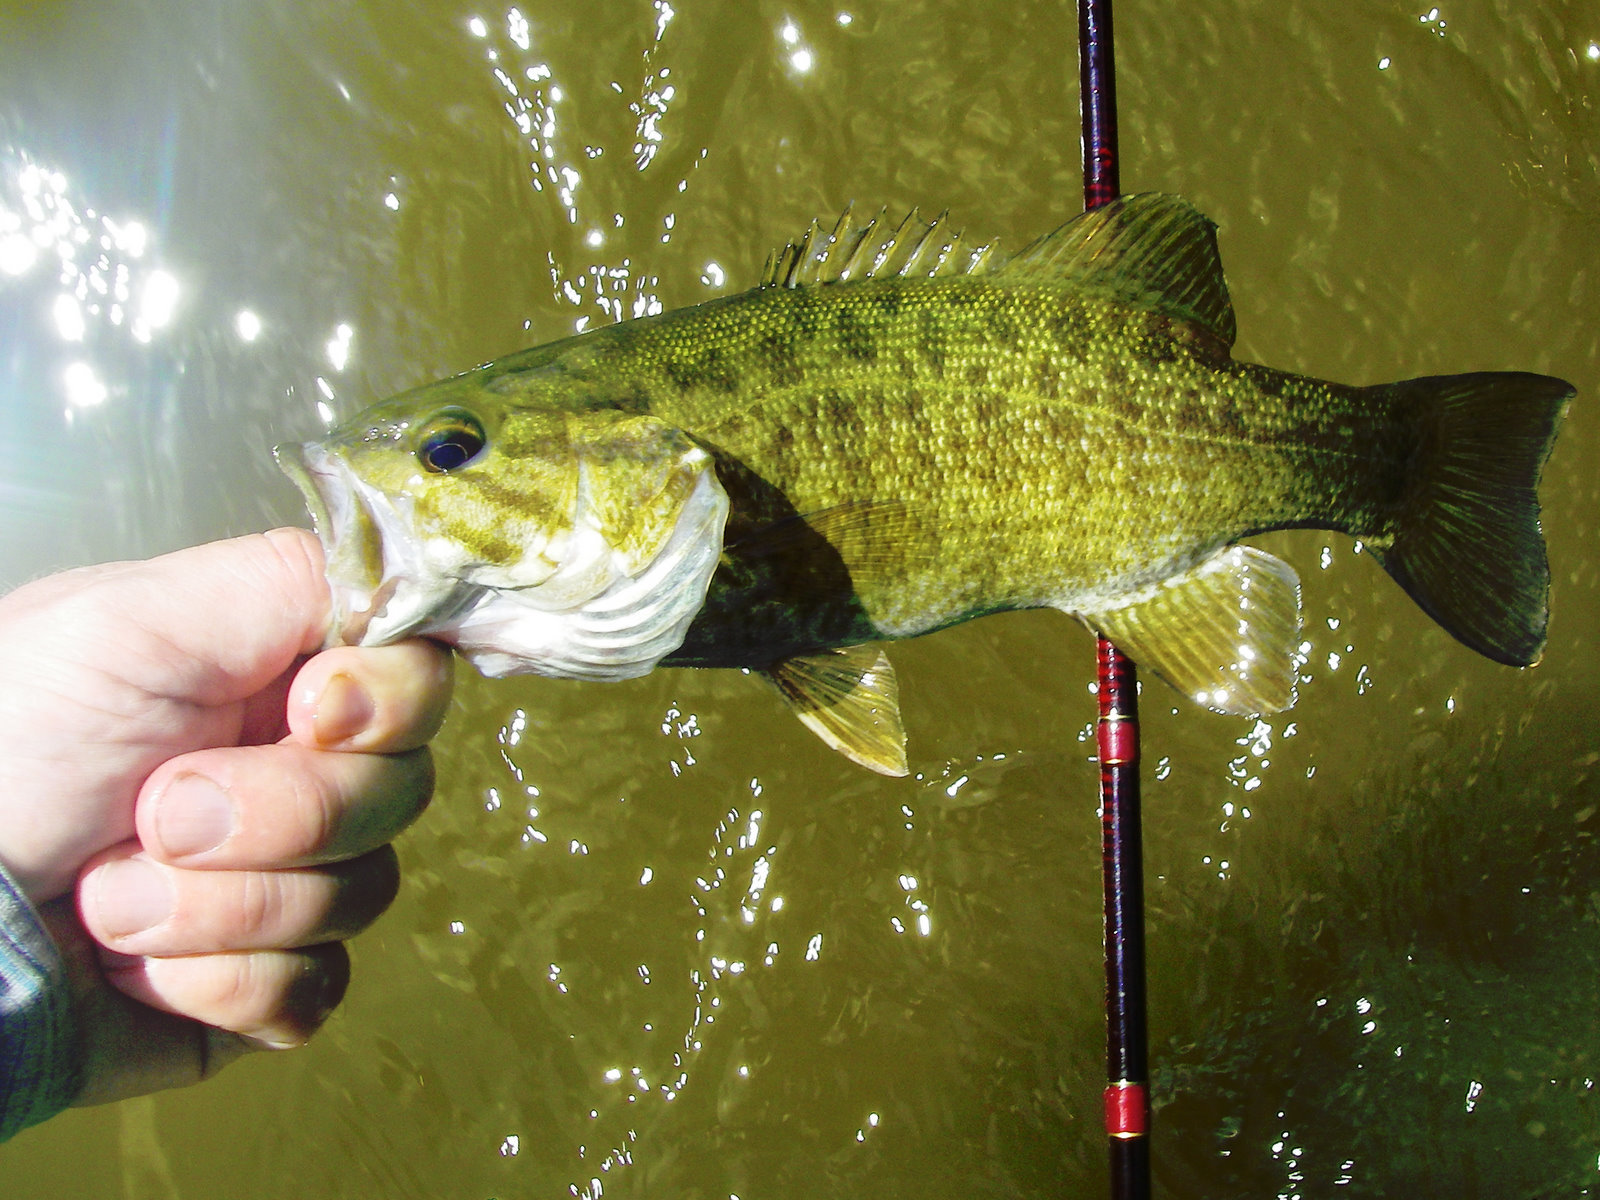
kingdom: Animalia
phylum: Chordata
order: Perciformes
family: Centrarchidae
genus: Micropterus
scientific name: Micropterus dolomieu
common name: Smallmouth bass
